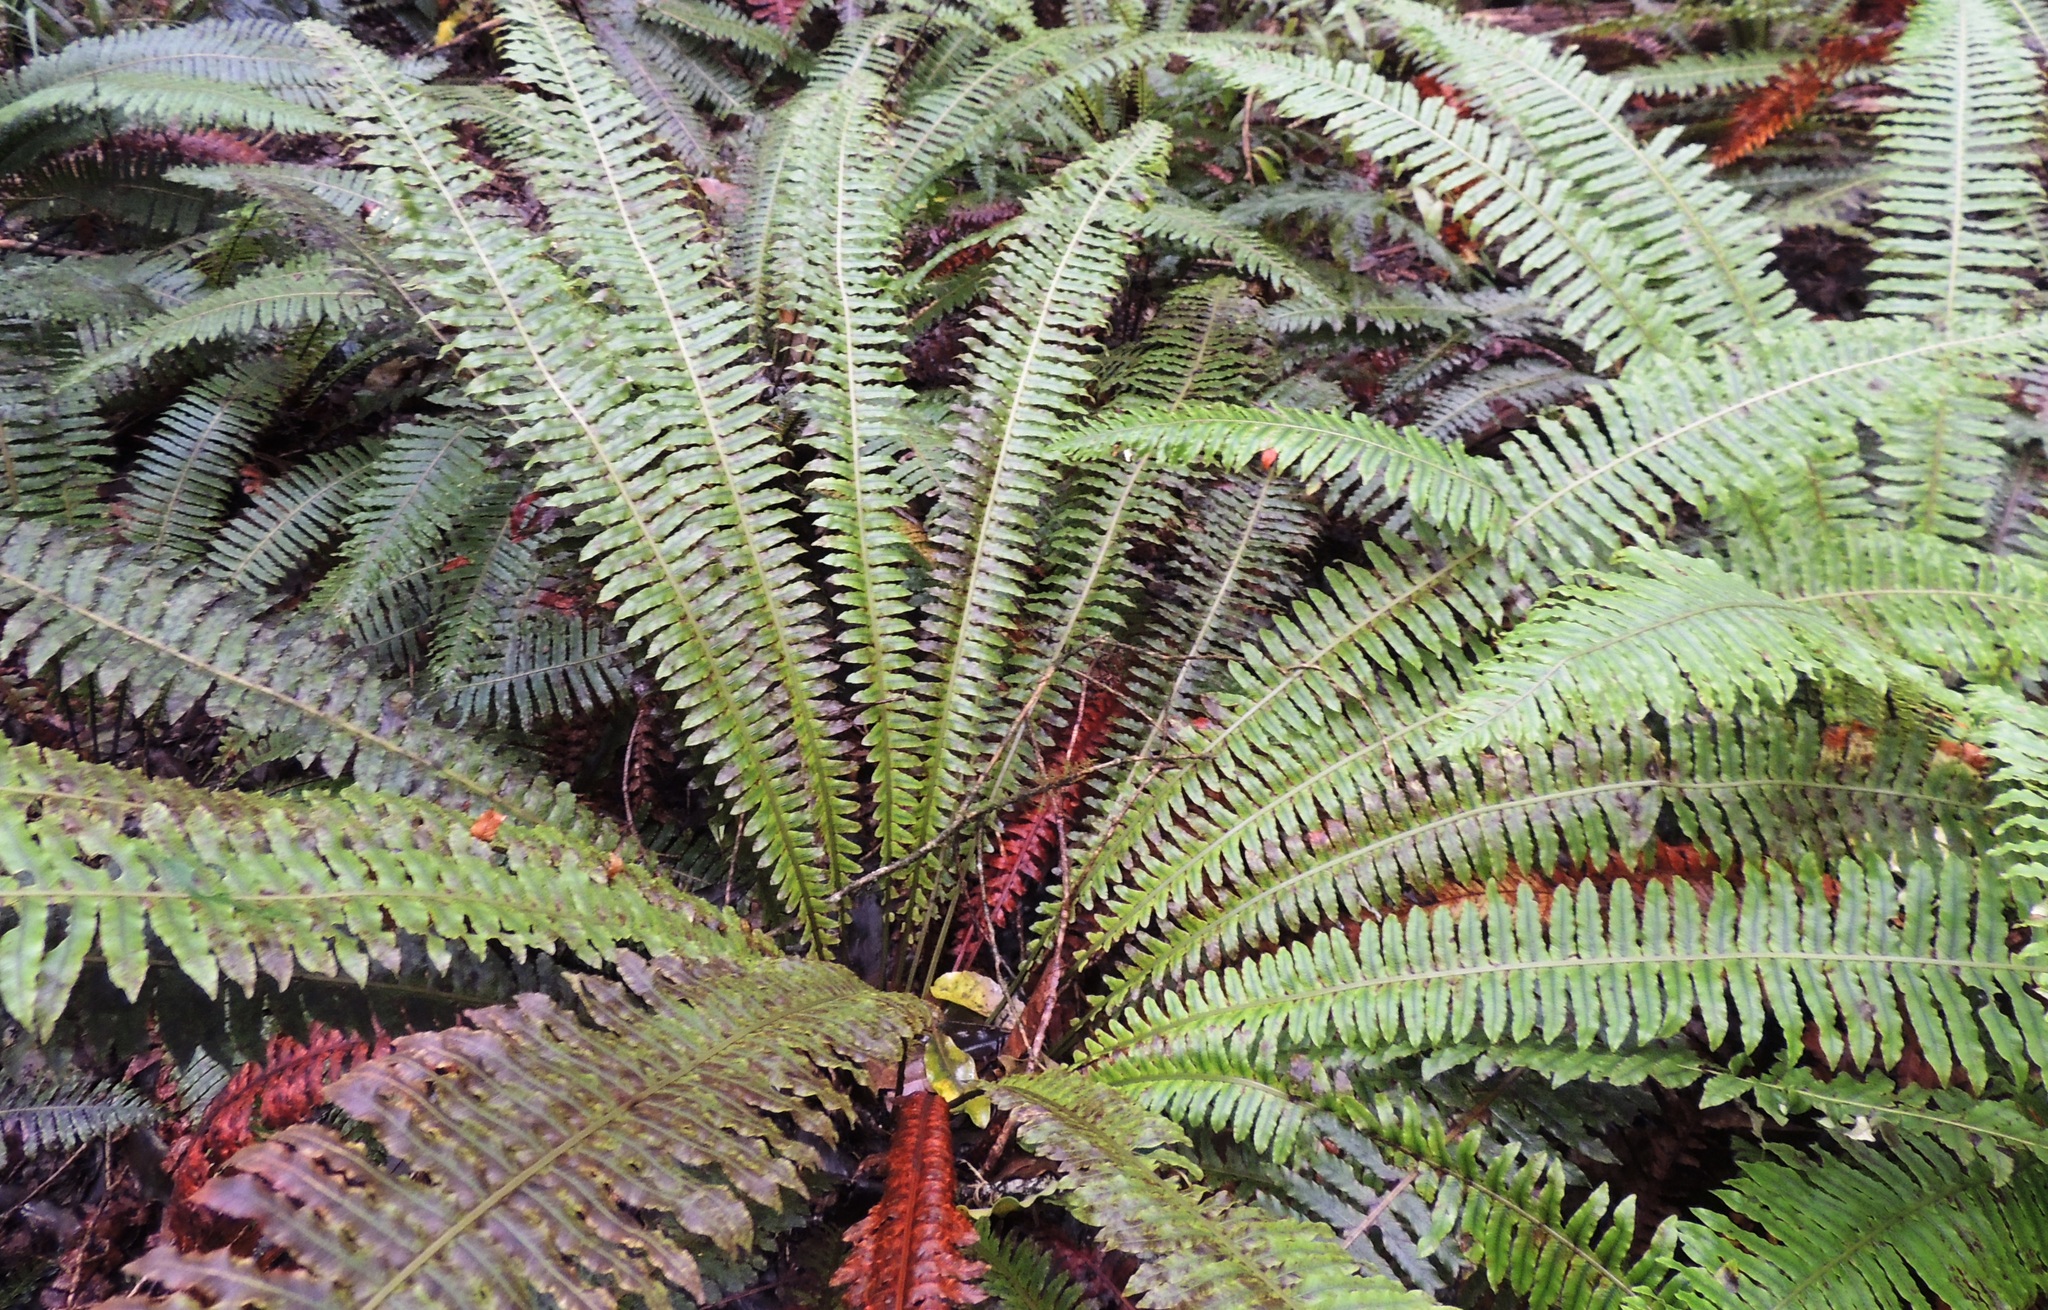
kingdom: Plantae
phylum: Tracheophyta
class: Polypodiopsida
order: Polypodiales
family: Blechnaceae
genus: Lomaria
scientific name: Lomaria discolor
